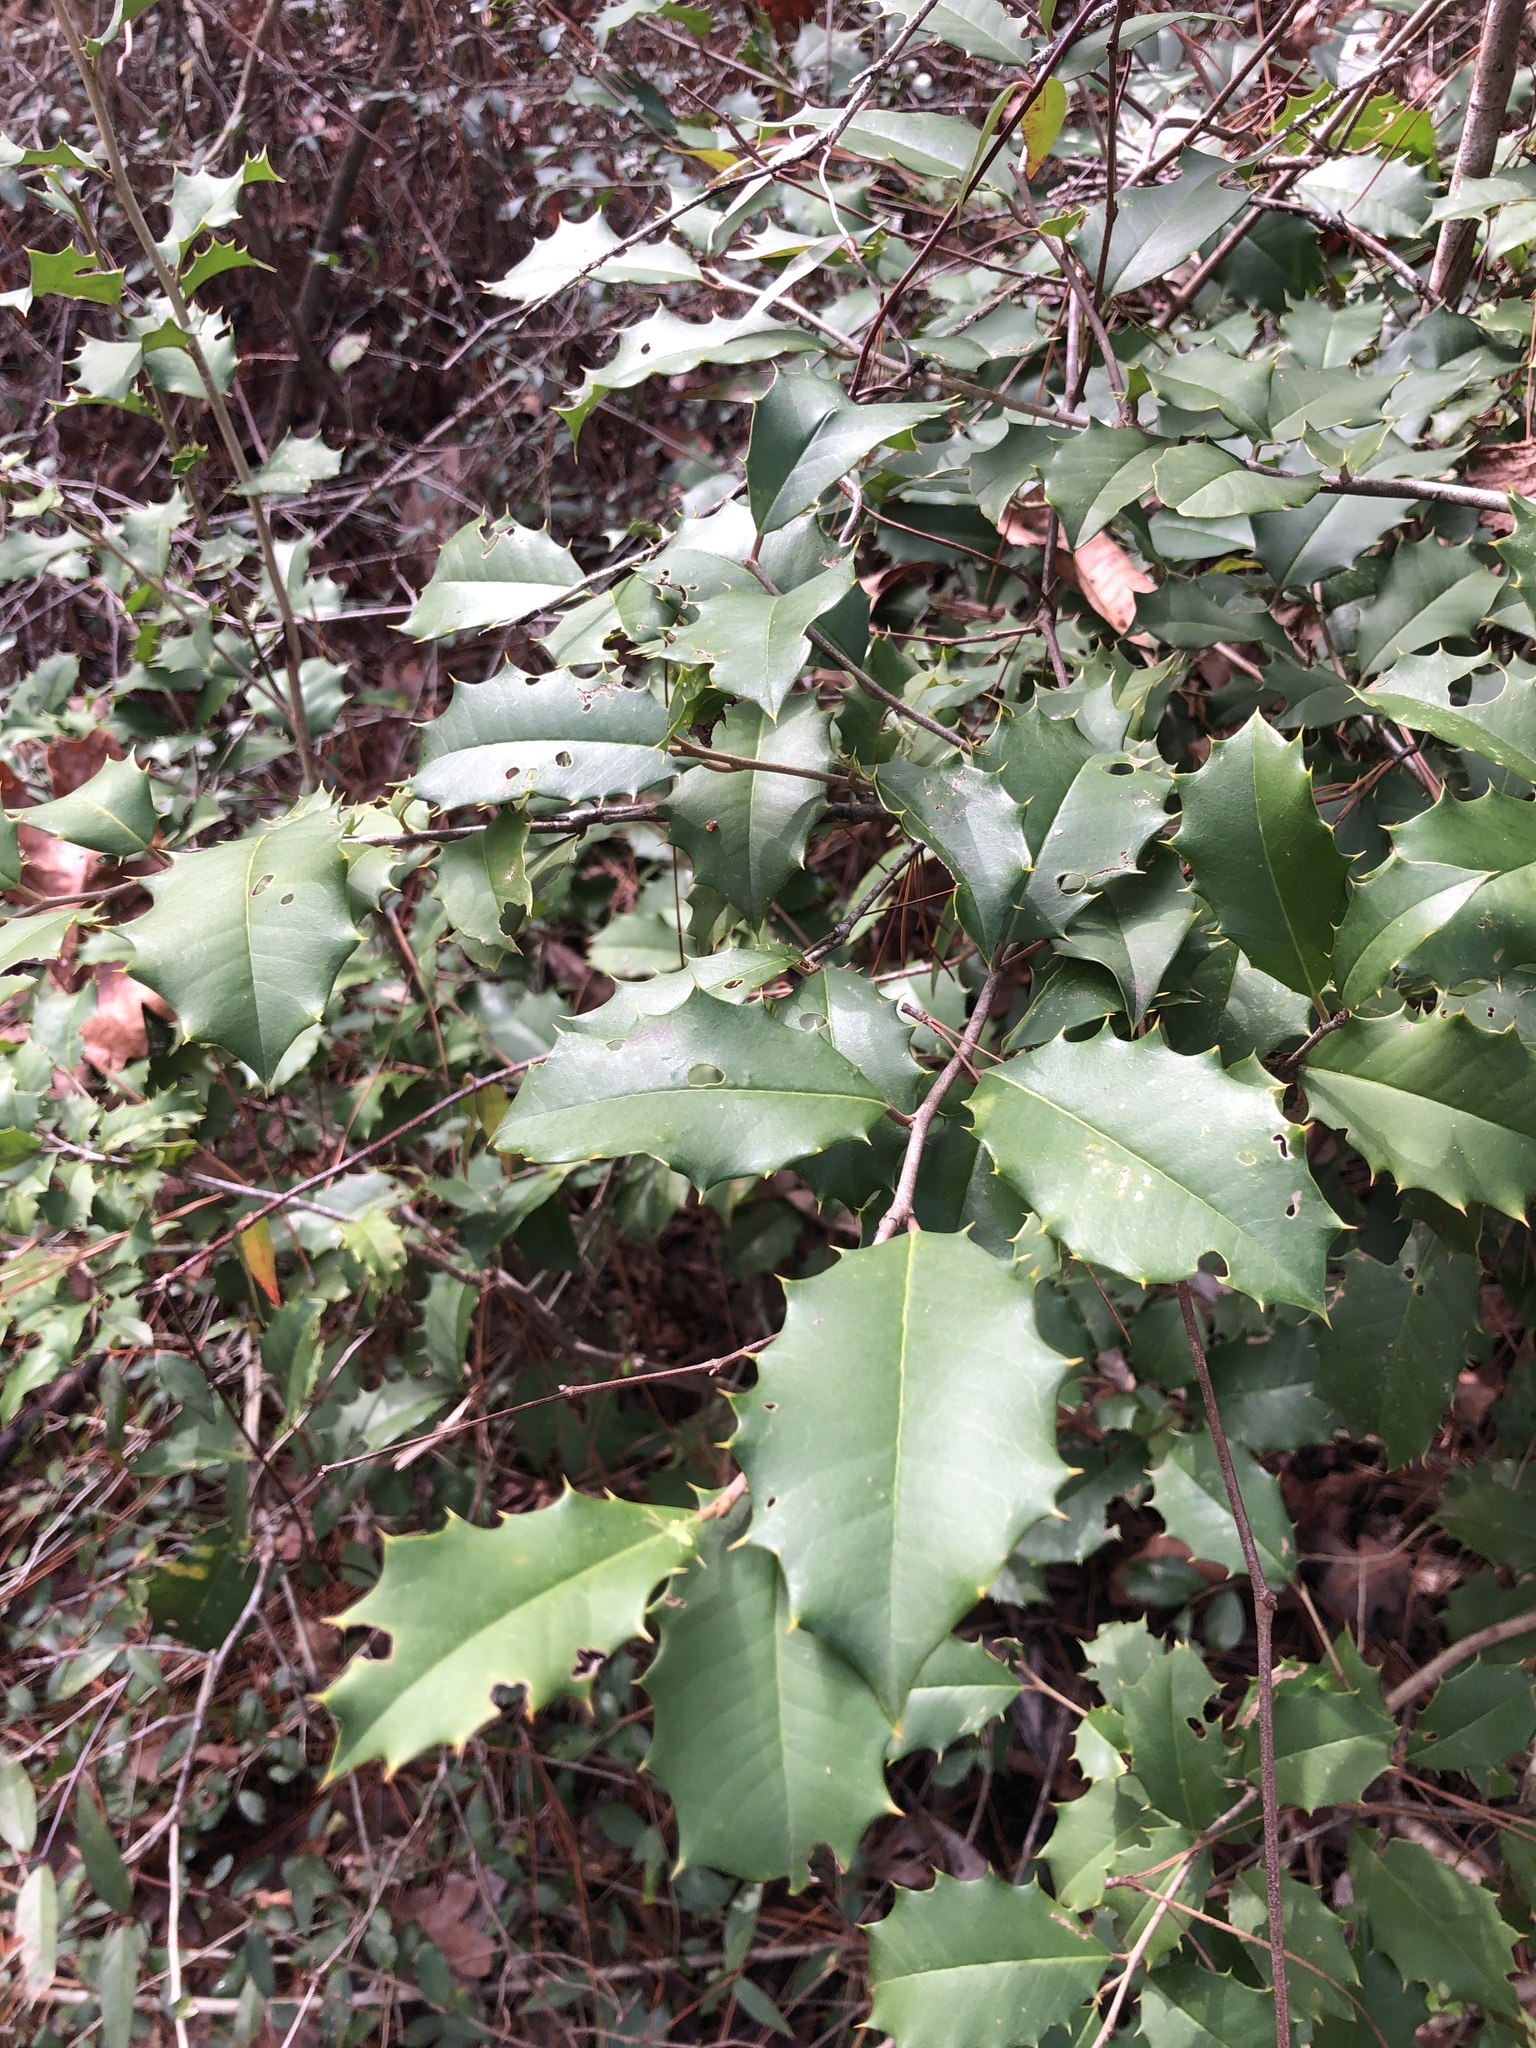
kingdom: Plantae
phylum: Tracheophyta
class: Magnoliopsida
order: Aquifoliales
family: Aquifoliaceae
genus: Ilex
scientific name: Ilex opaca
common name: American holly
